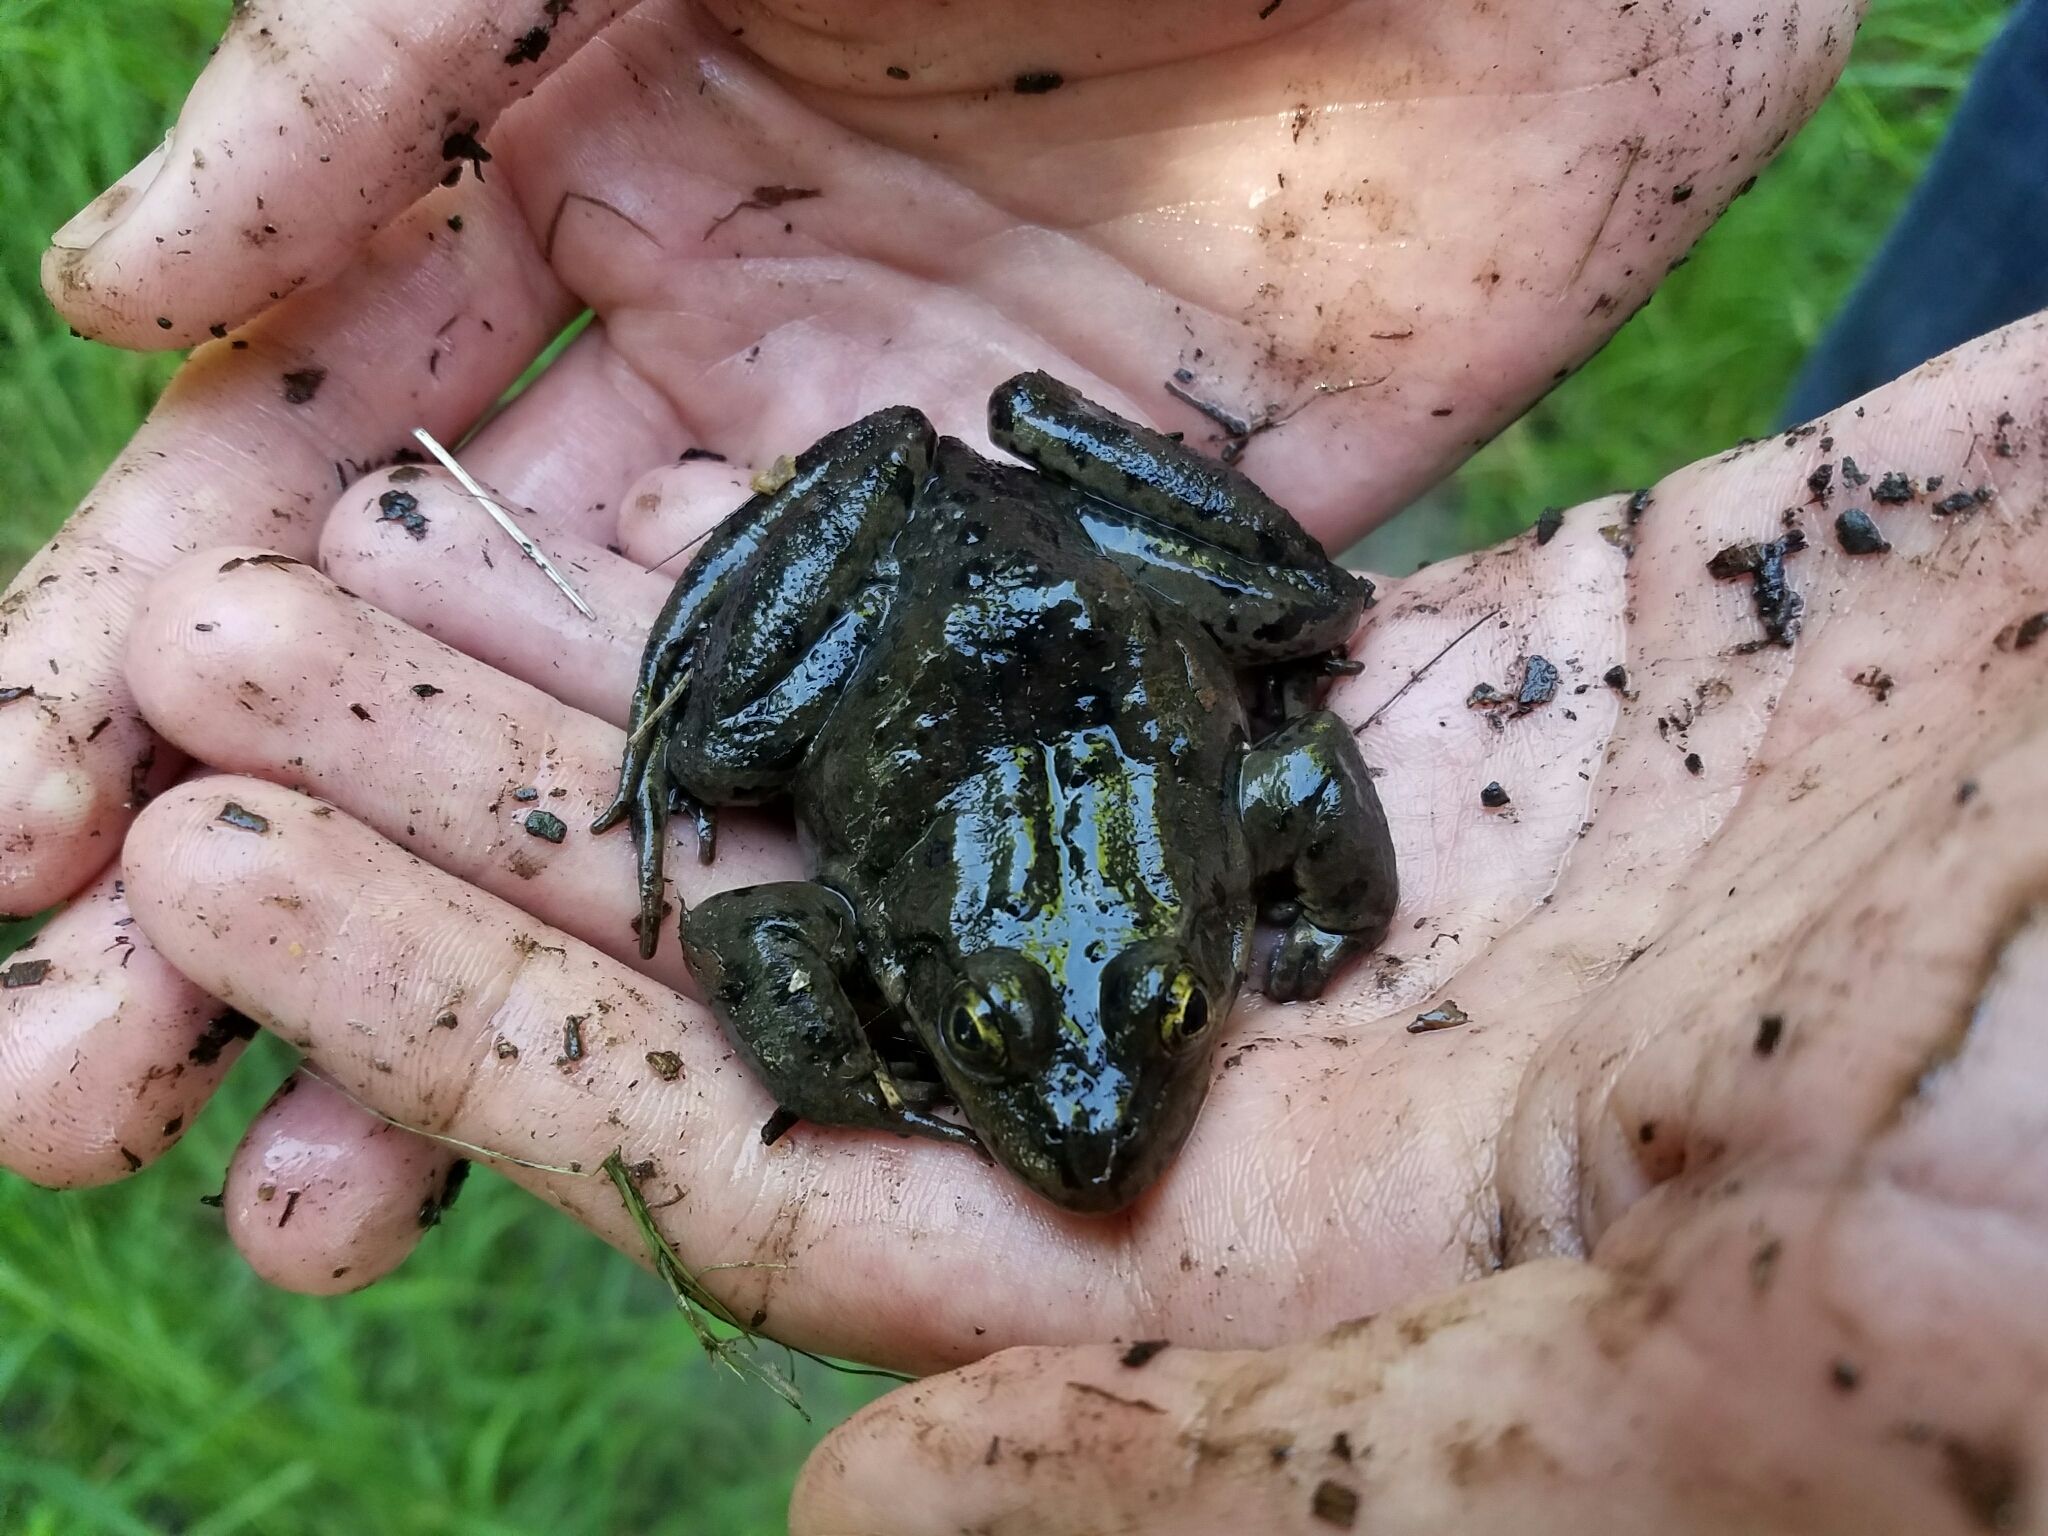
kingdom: Animalia
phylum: Chordata
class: Amphibia
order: Anura
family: Ranidae
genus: Rana
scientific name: Rana luteiventris
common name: Columbia spotted frog
